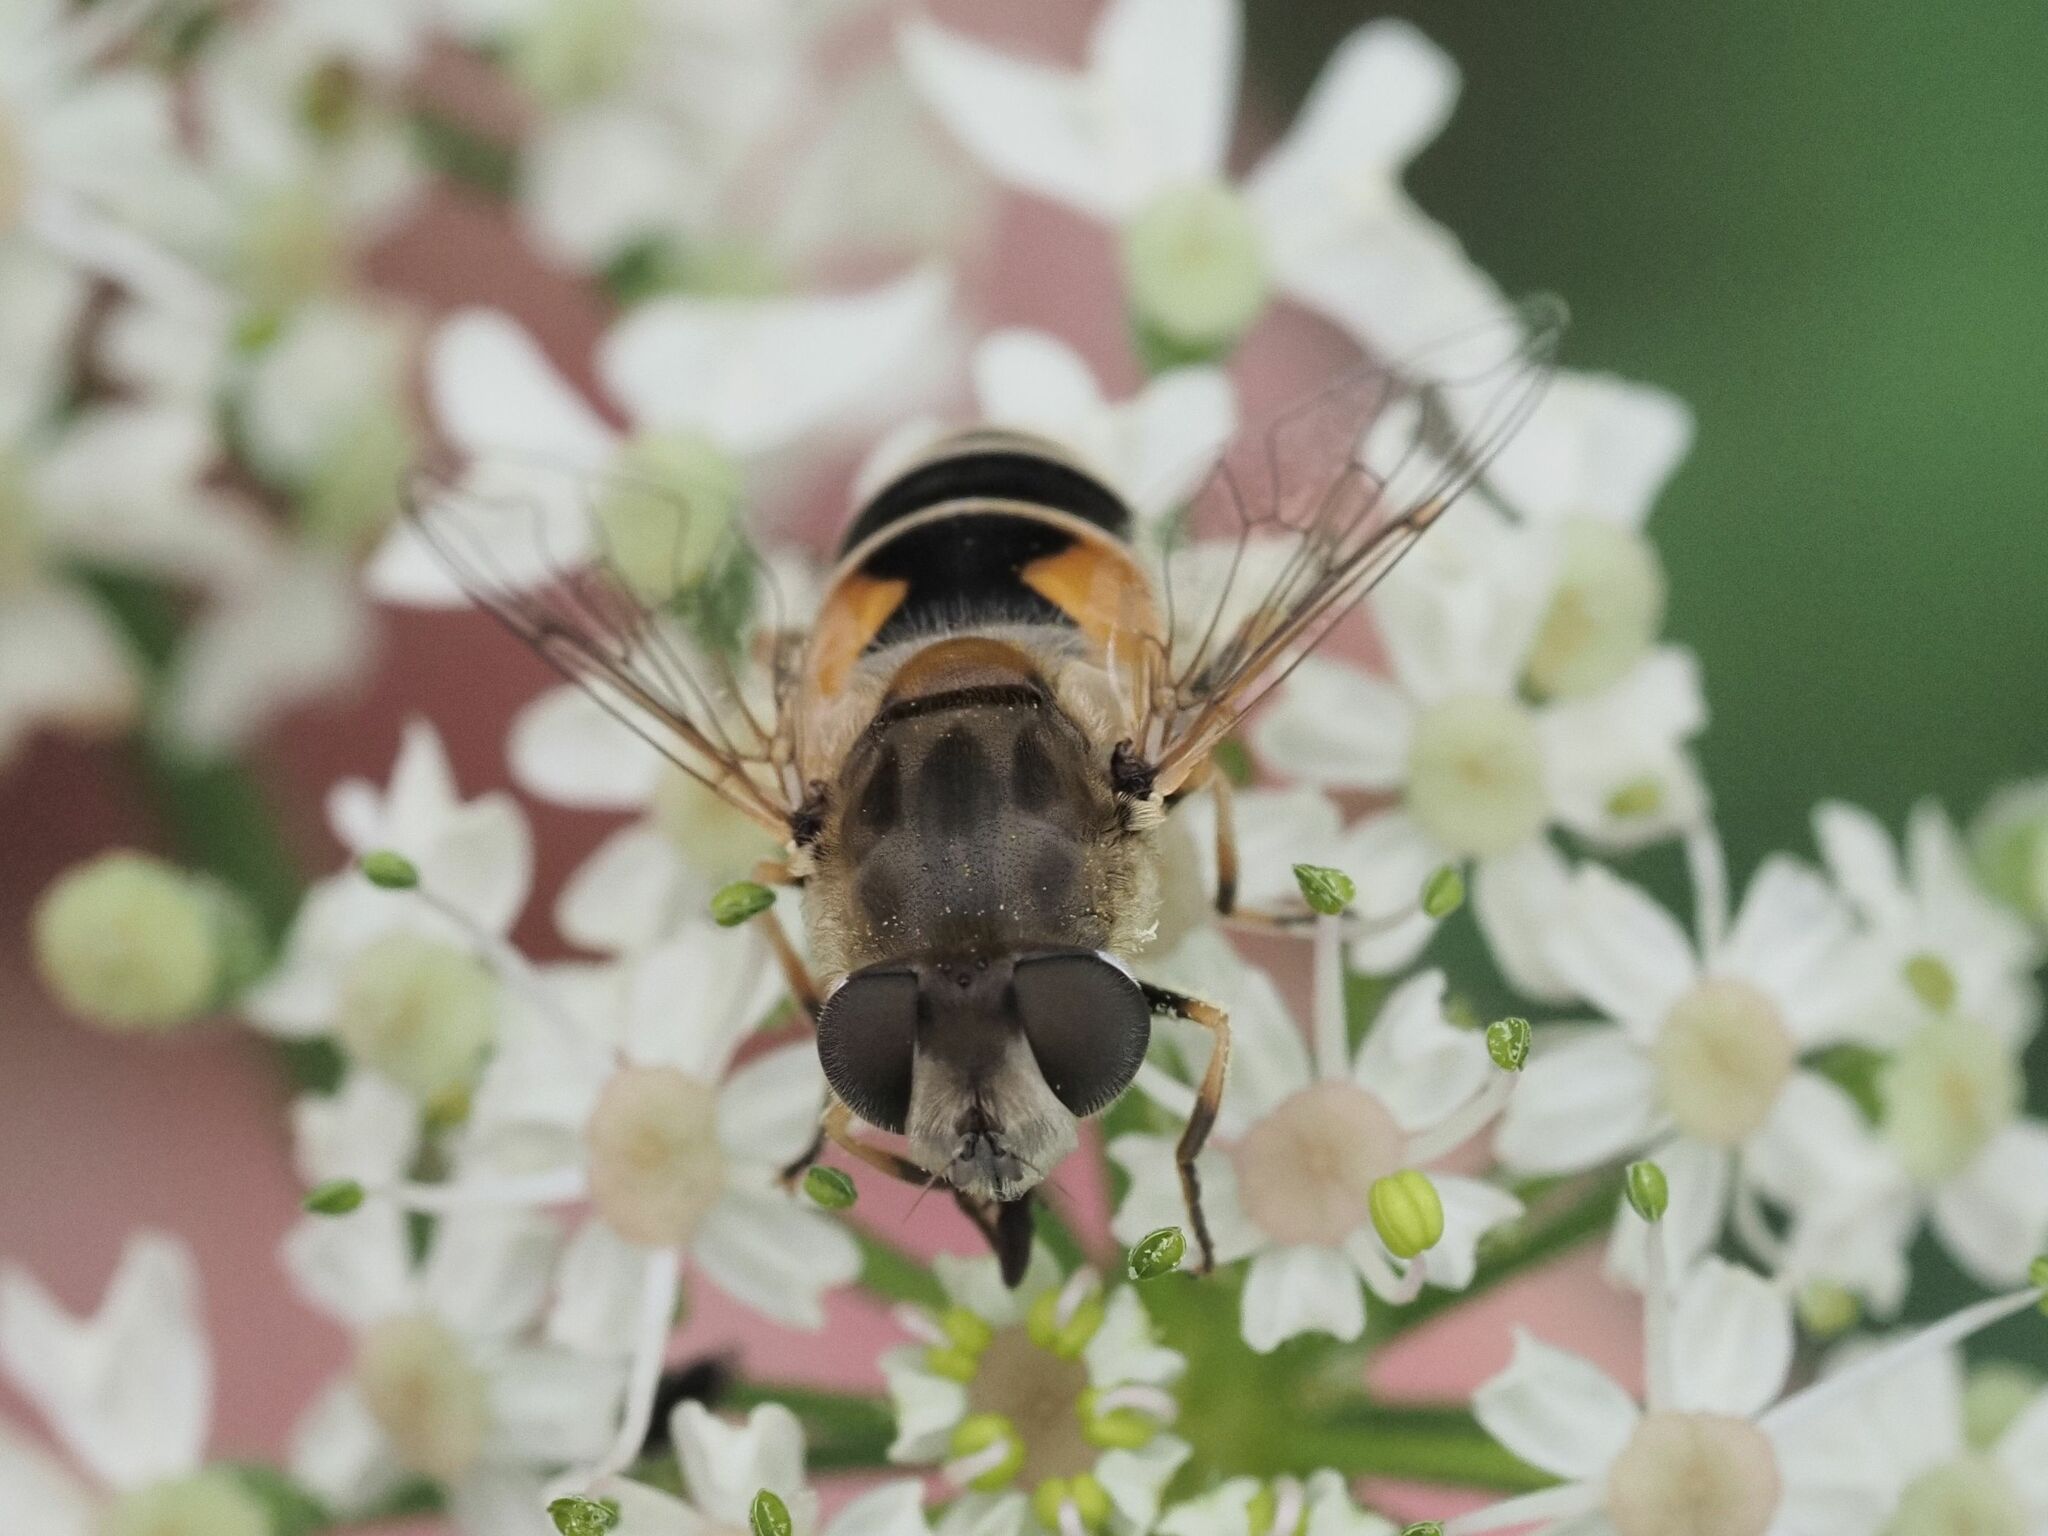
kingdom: Animalia
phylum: Arthropoda
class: Insecta
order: Diptera
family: Syrphidae
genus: Eristalis
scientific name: Eristalis arbustorum
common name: Hover fly
